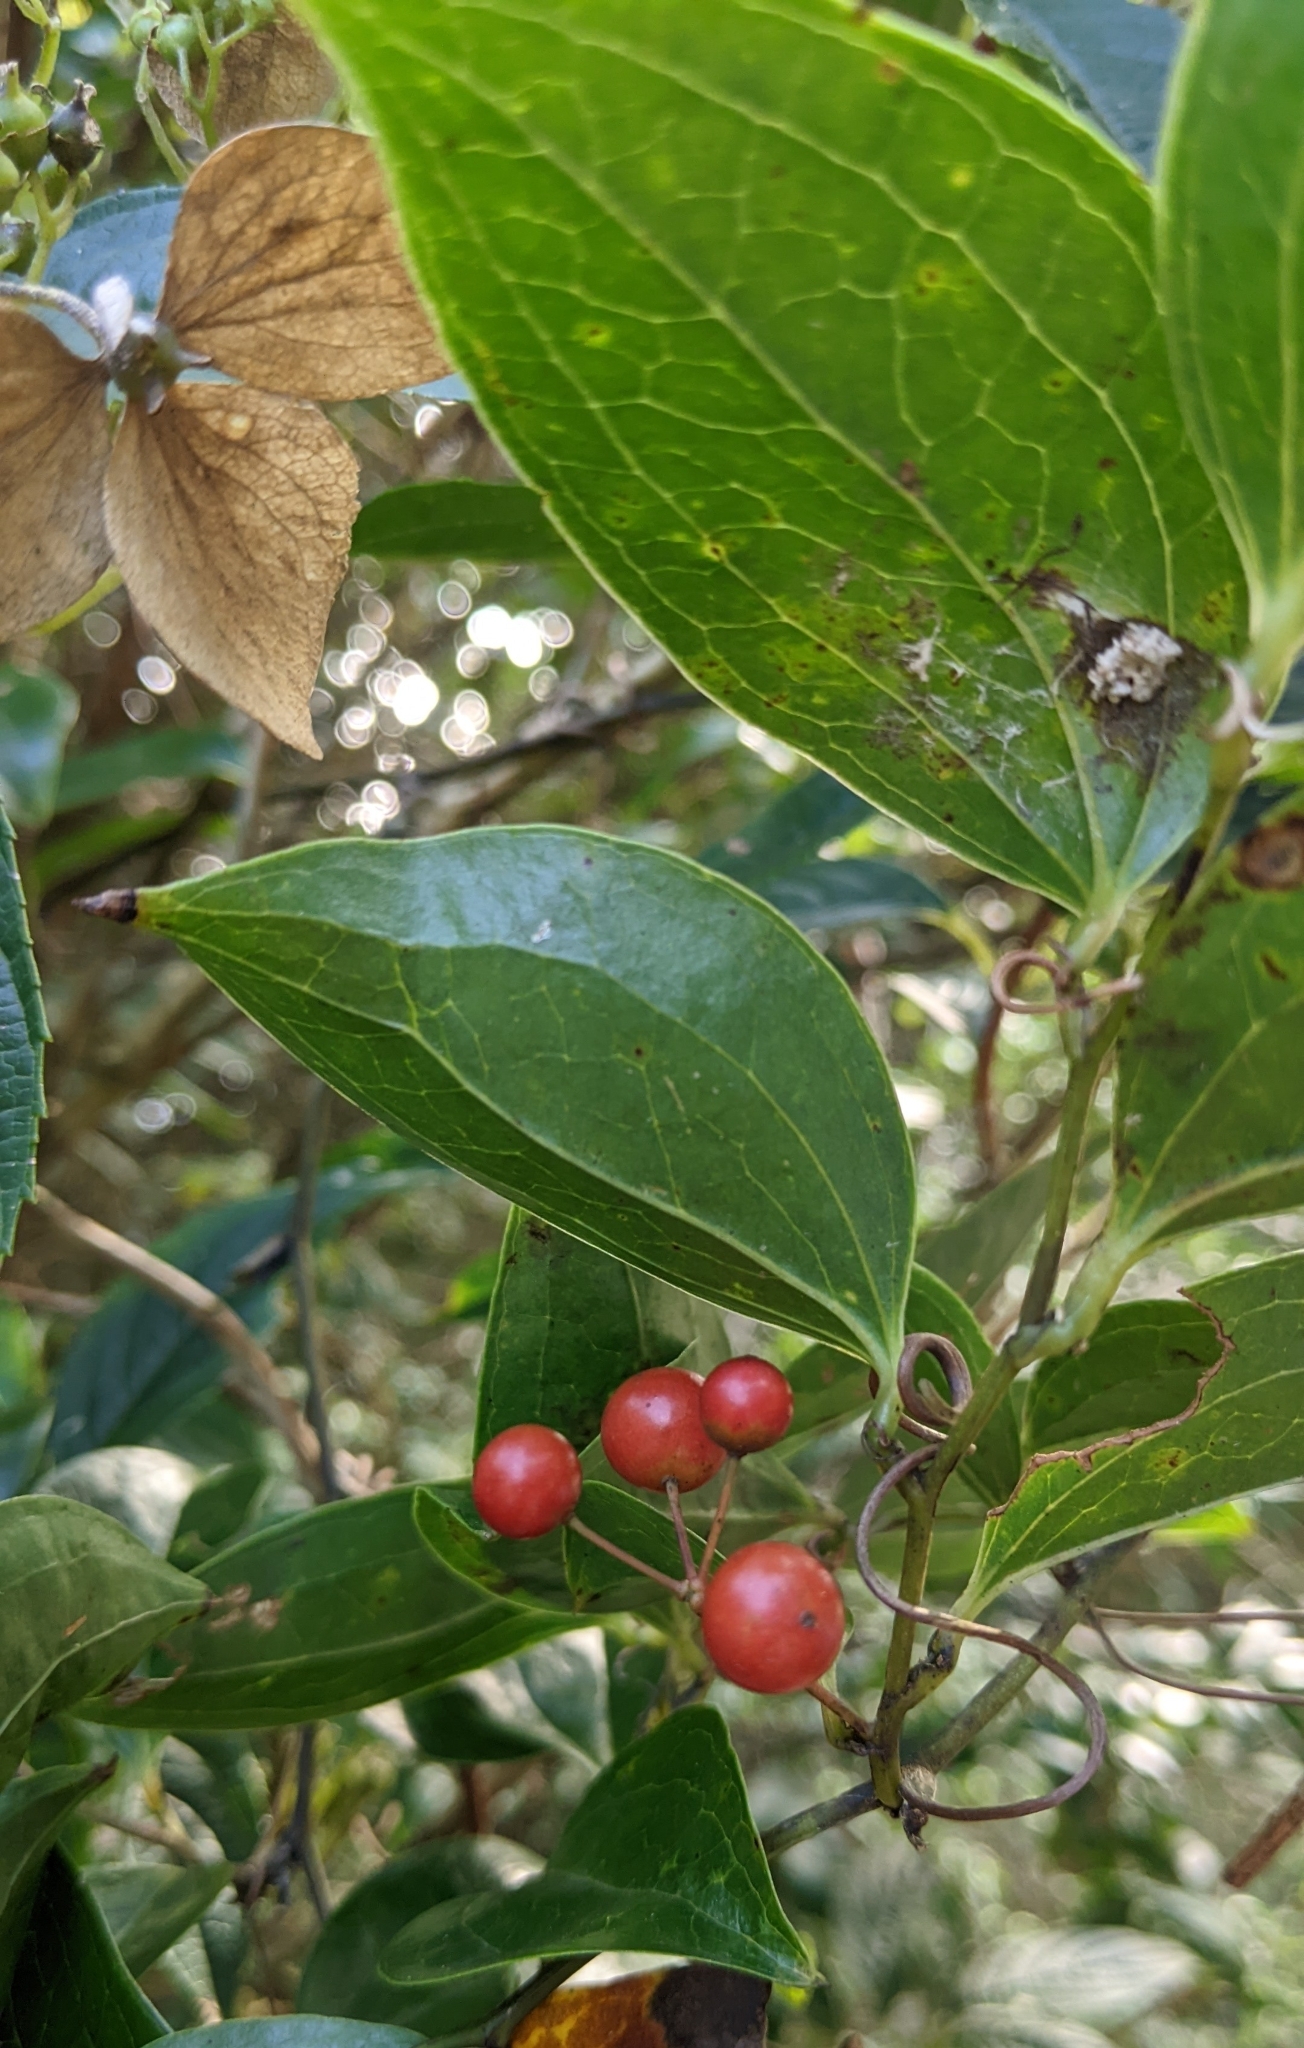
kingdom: Plantae
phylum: Tracheophyta
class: Liliopsida
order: Liliales
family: Smilacaceae
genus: Smilax
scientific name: Smilax china
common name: Chinaroot
